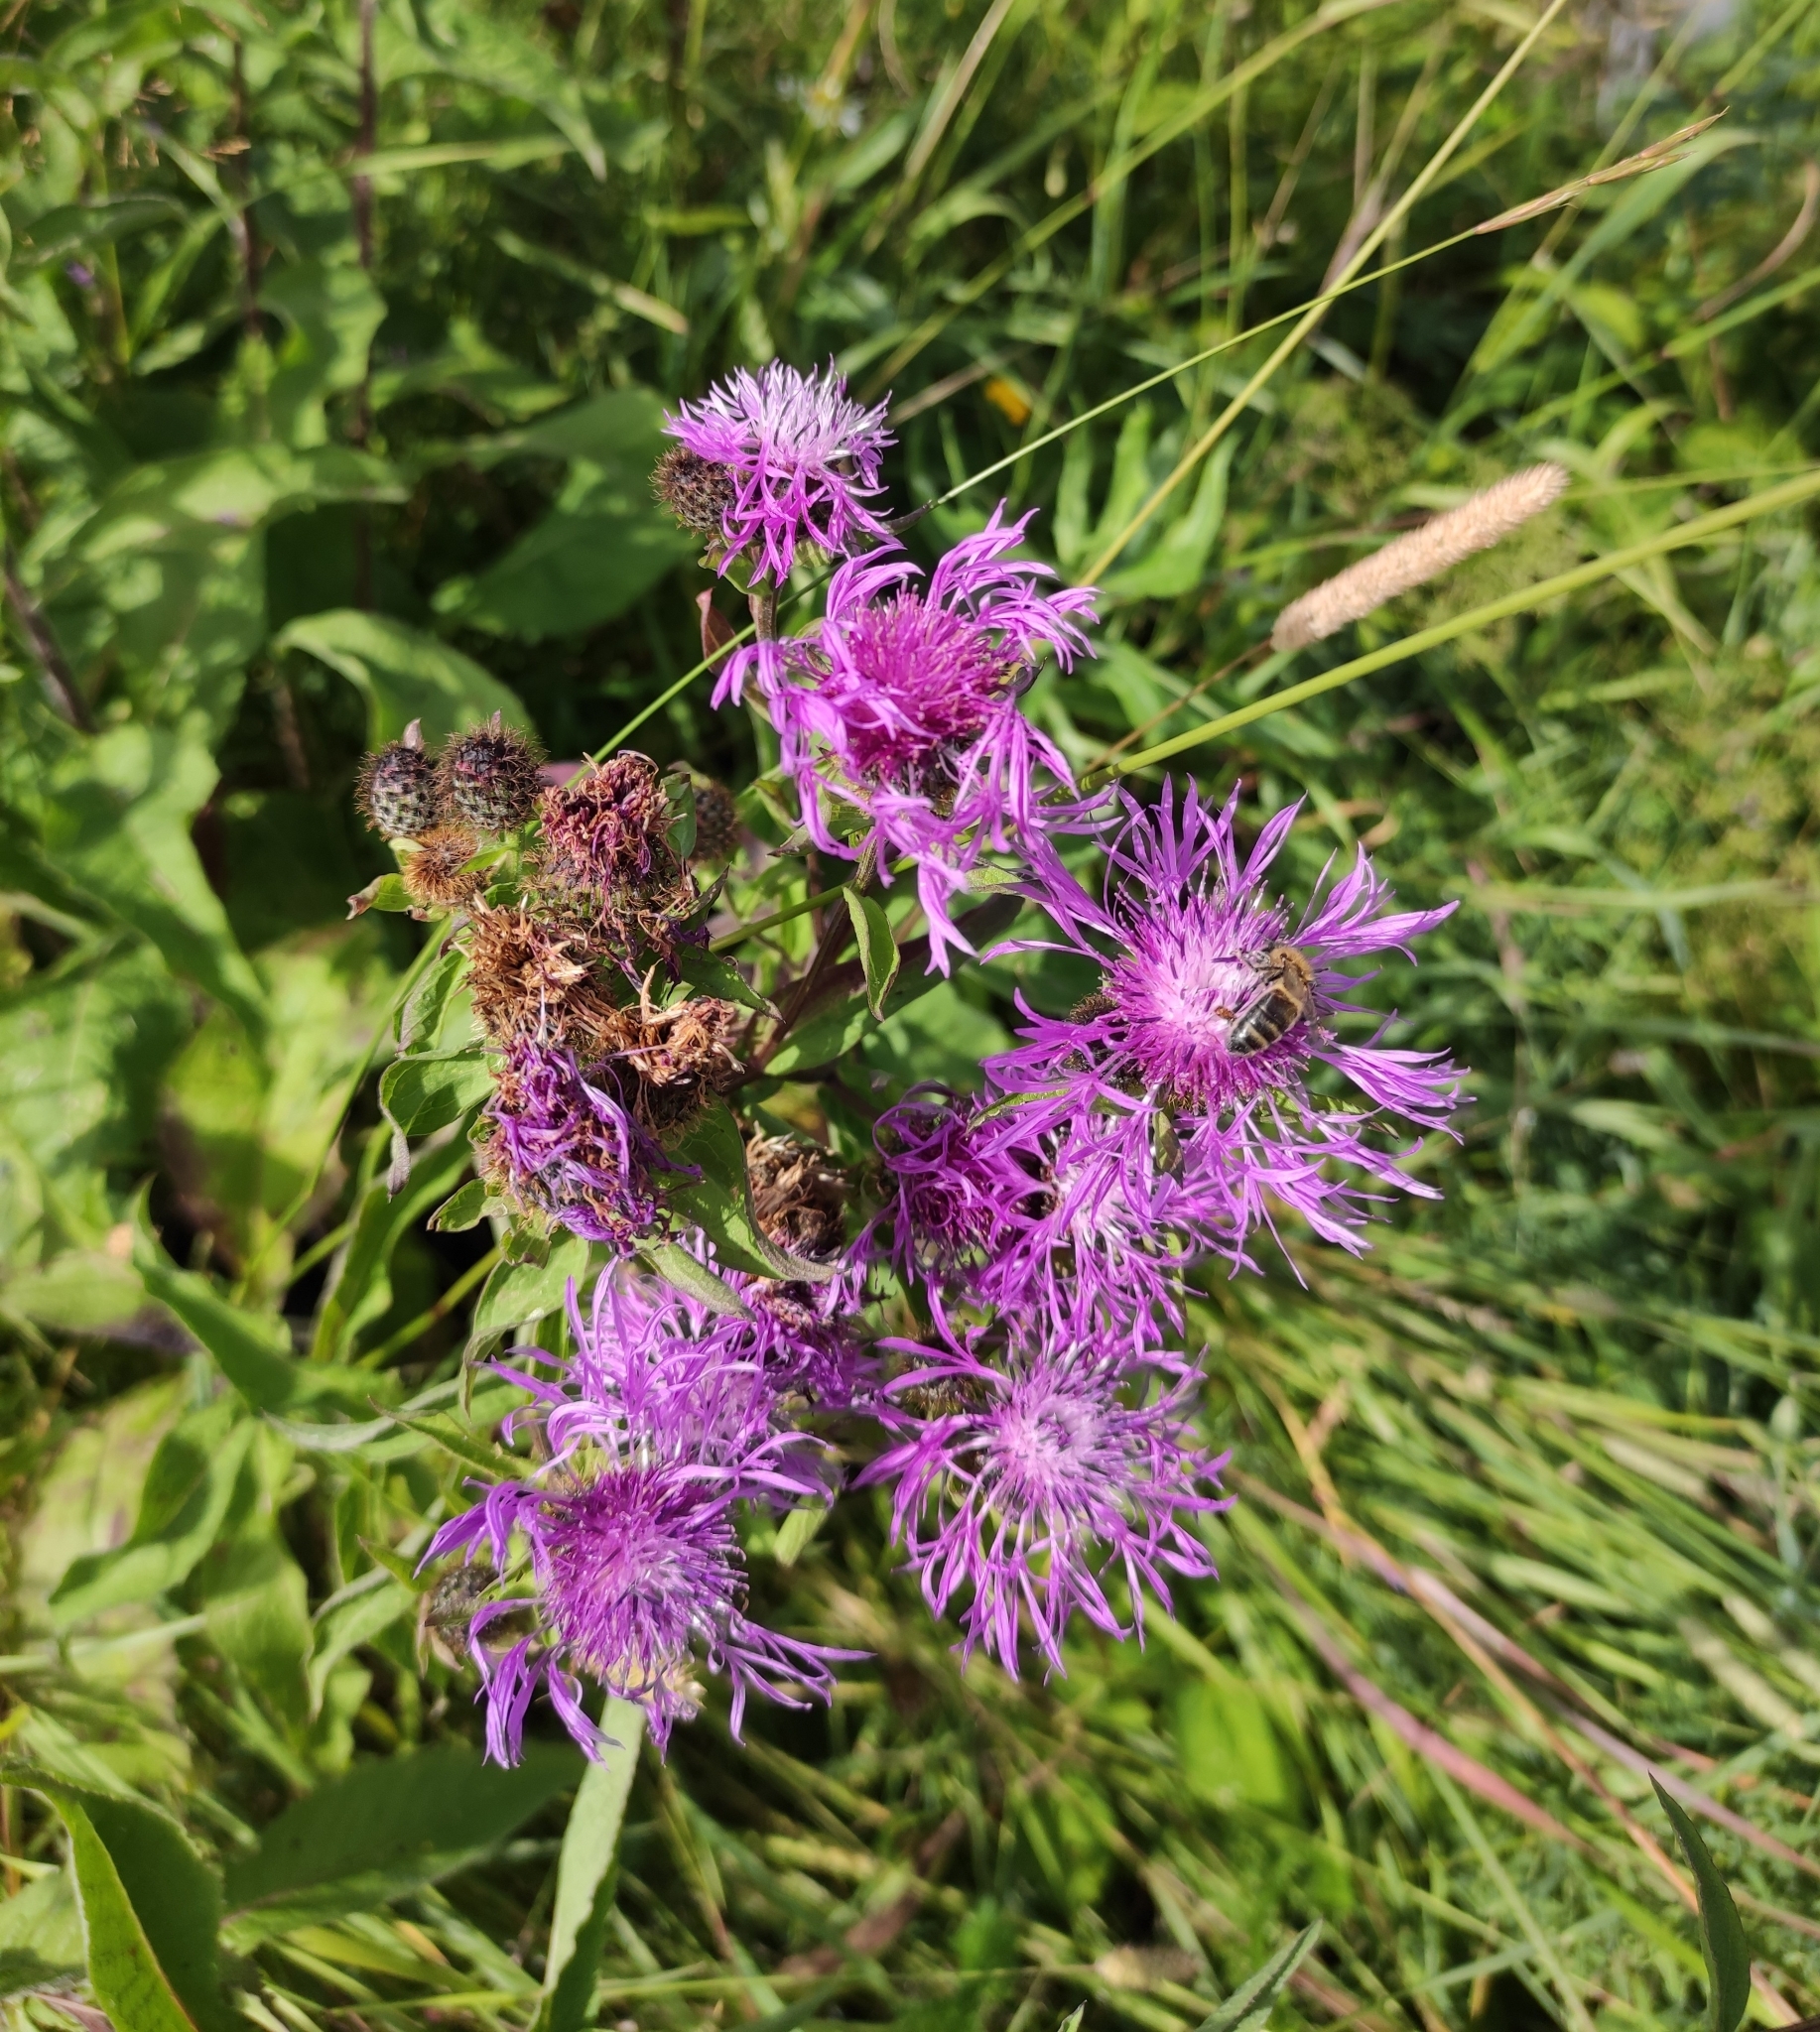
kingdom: Plantae
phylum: Tracheophyta
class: Magnoliopsida
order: Asterales
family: Asteraceae
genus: Centaurea
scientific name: Centaurea phrygia
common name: Wig knapweed
